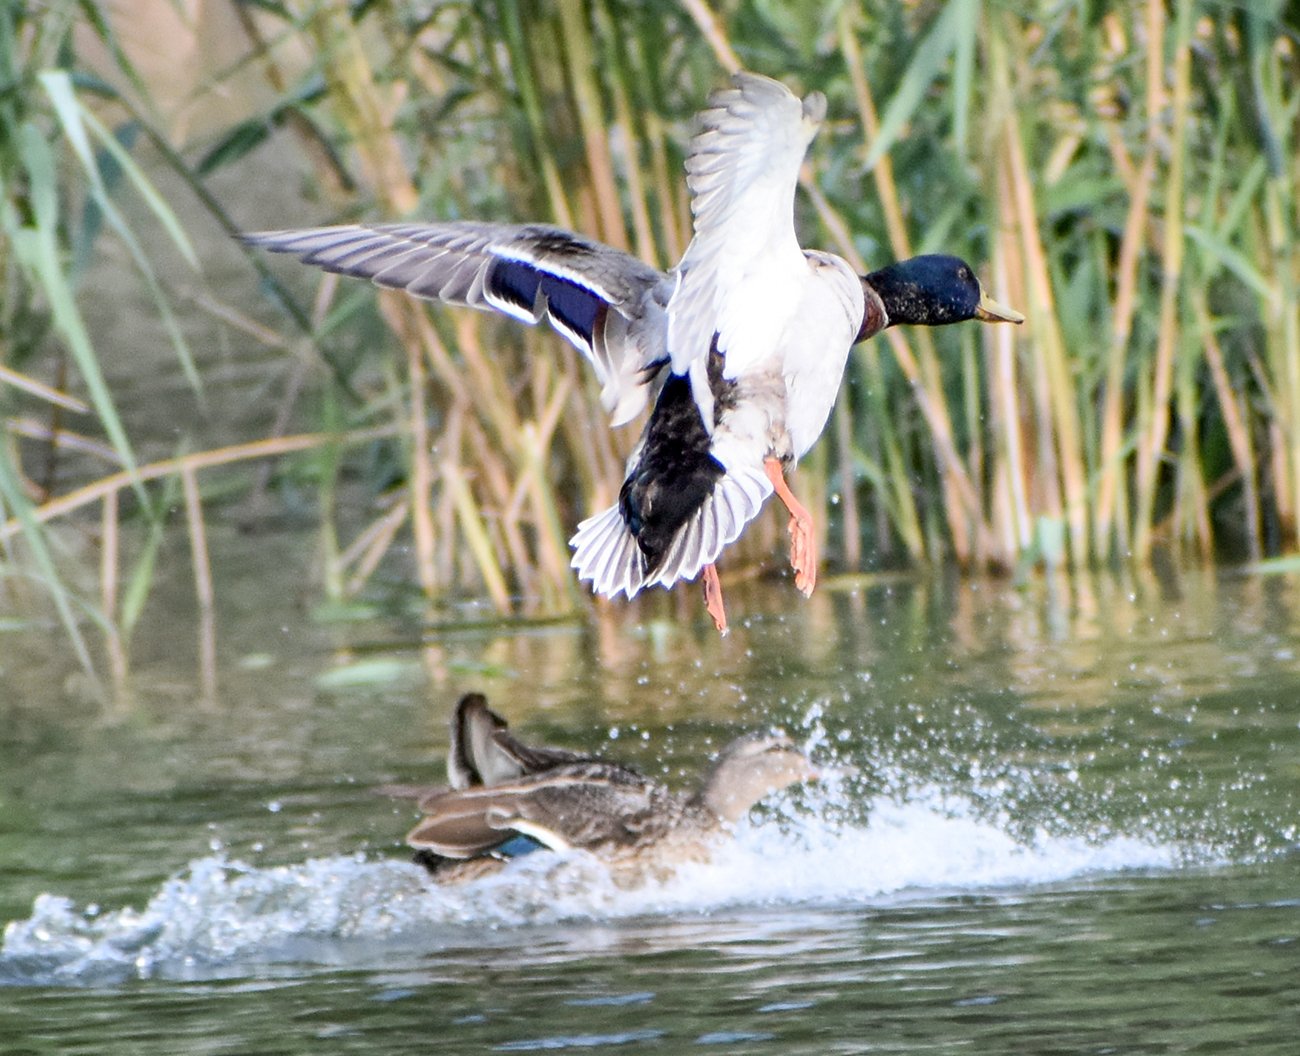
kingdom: Animalia
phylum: Chordata
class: Aves
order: Anseriformes
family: Anatidae
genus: Anas
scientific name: Anas platyrhynchos
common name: Mallard
